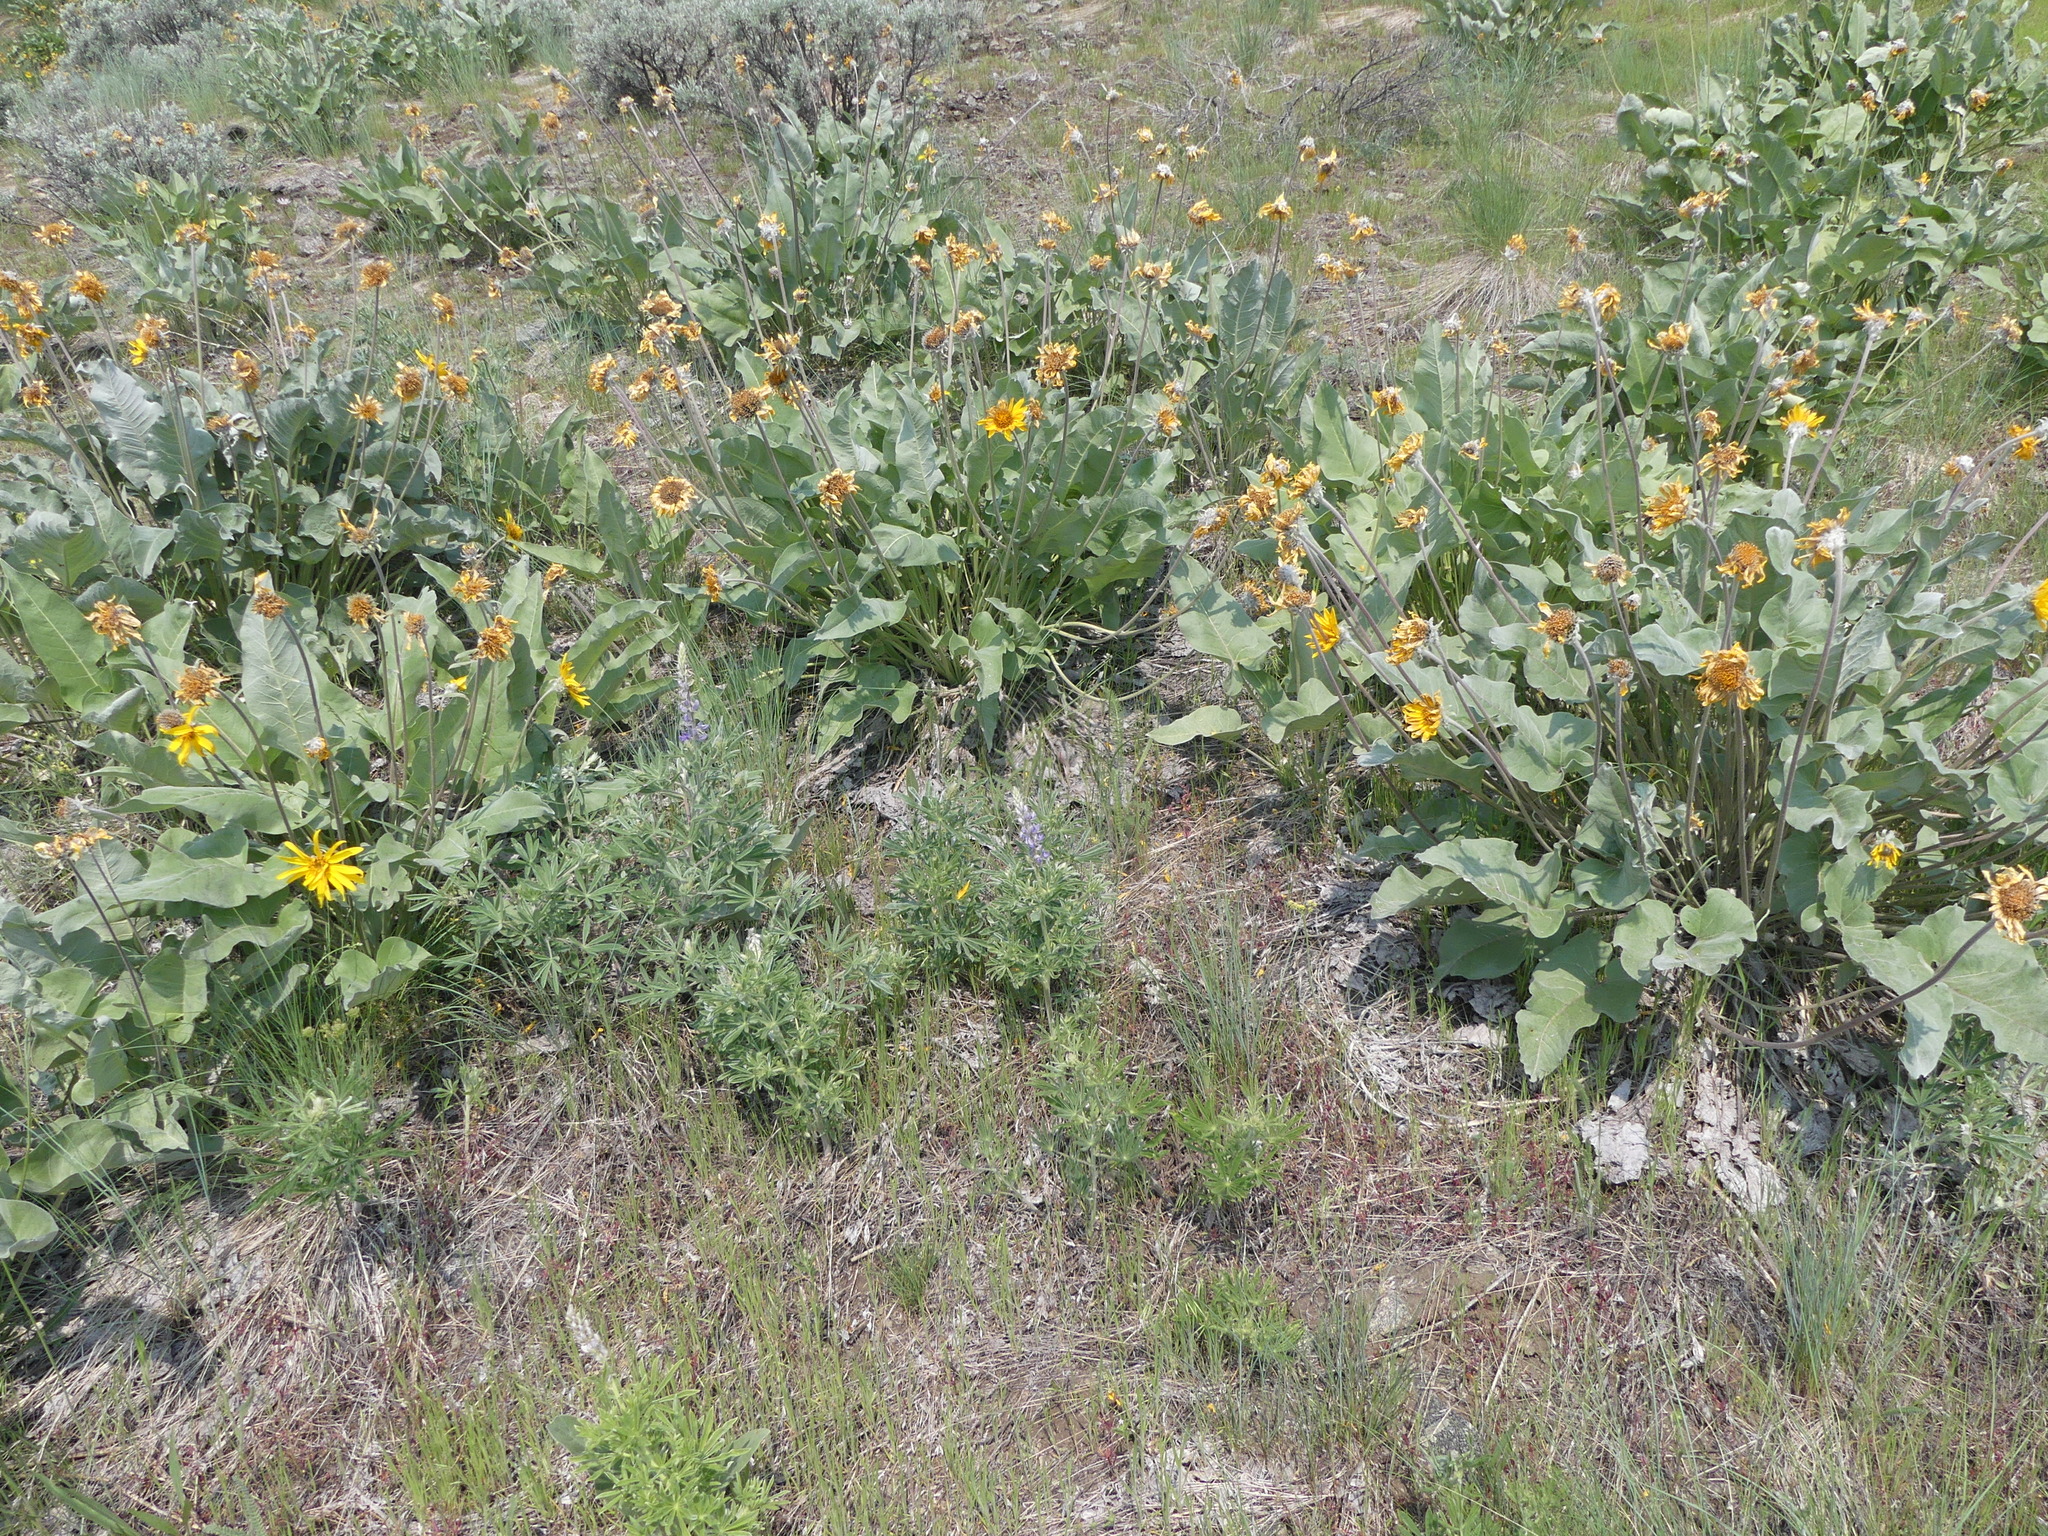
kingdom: Plantae
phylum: Tracheophyta
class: Magnoliopsida
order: Asterales
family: Asteraceae
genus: Wyethia
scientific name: Wyethia sagittata
